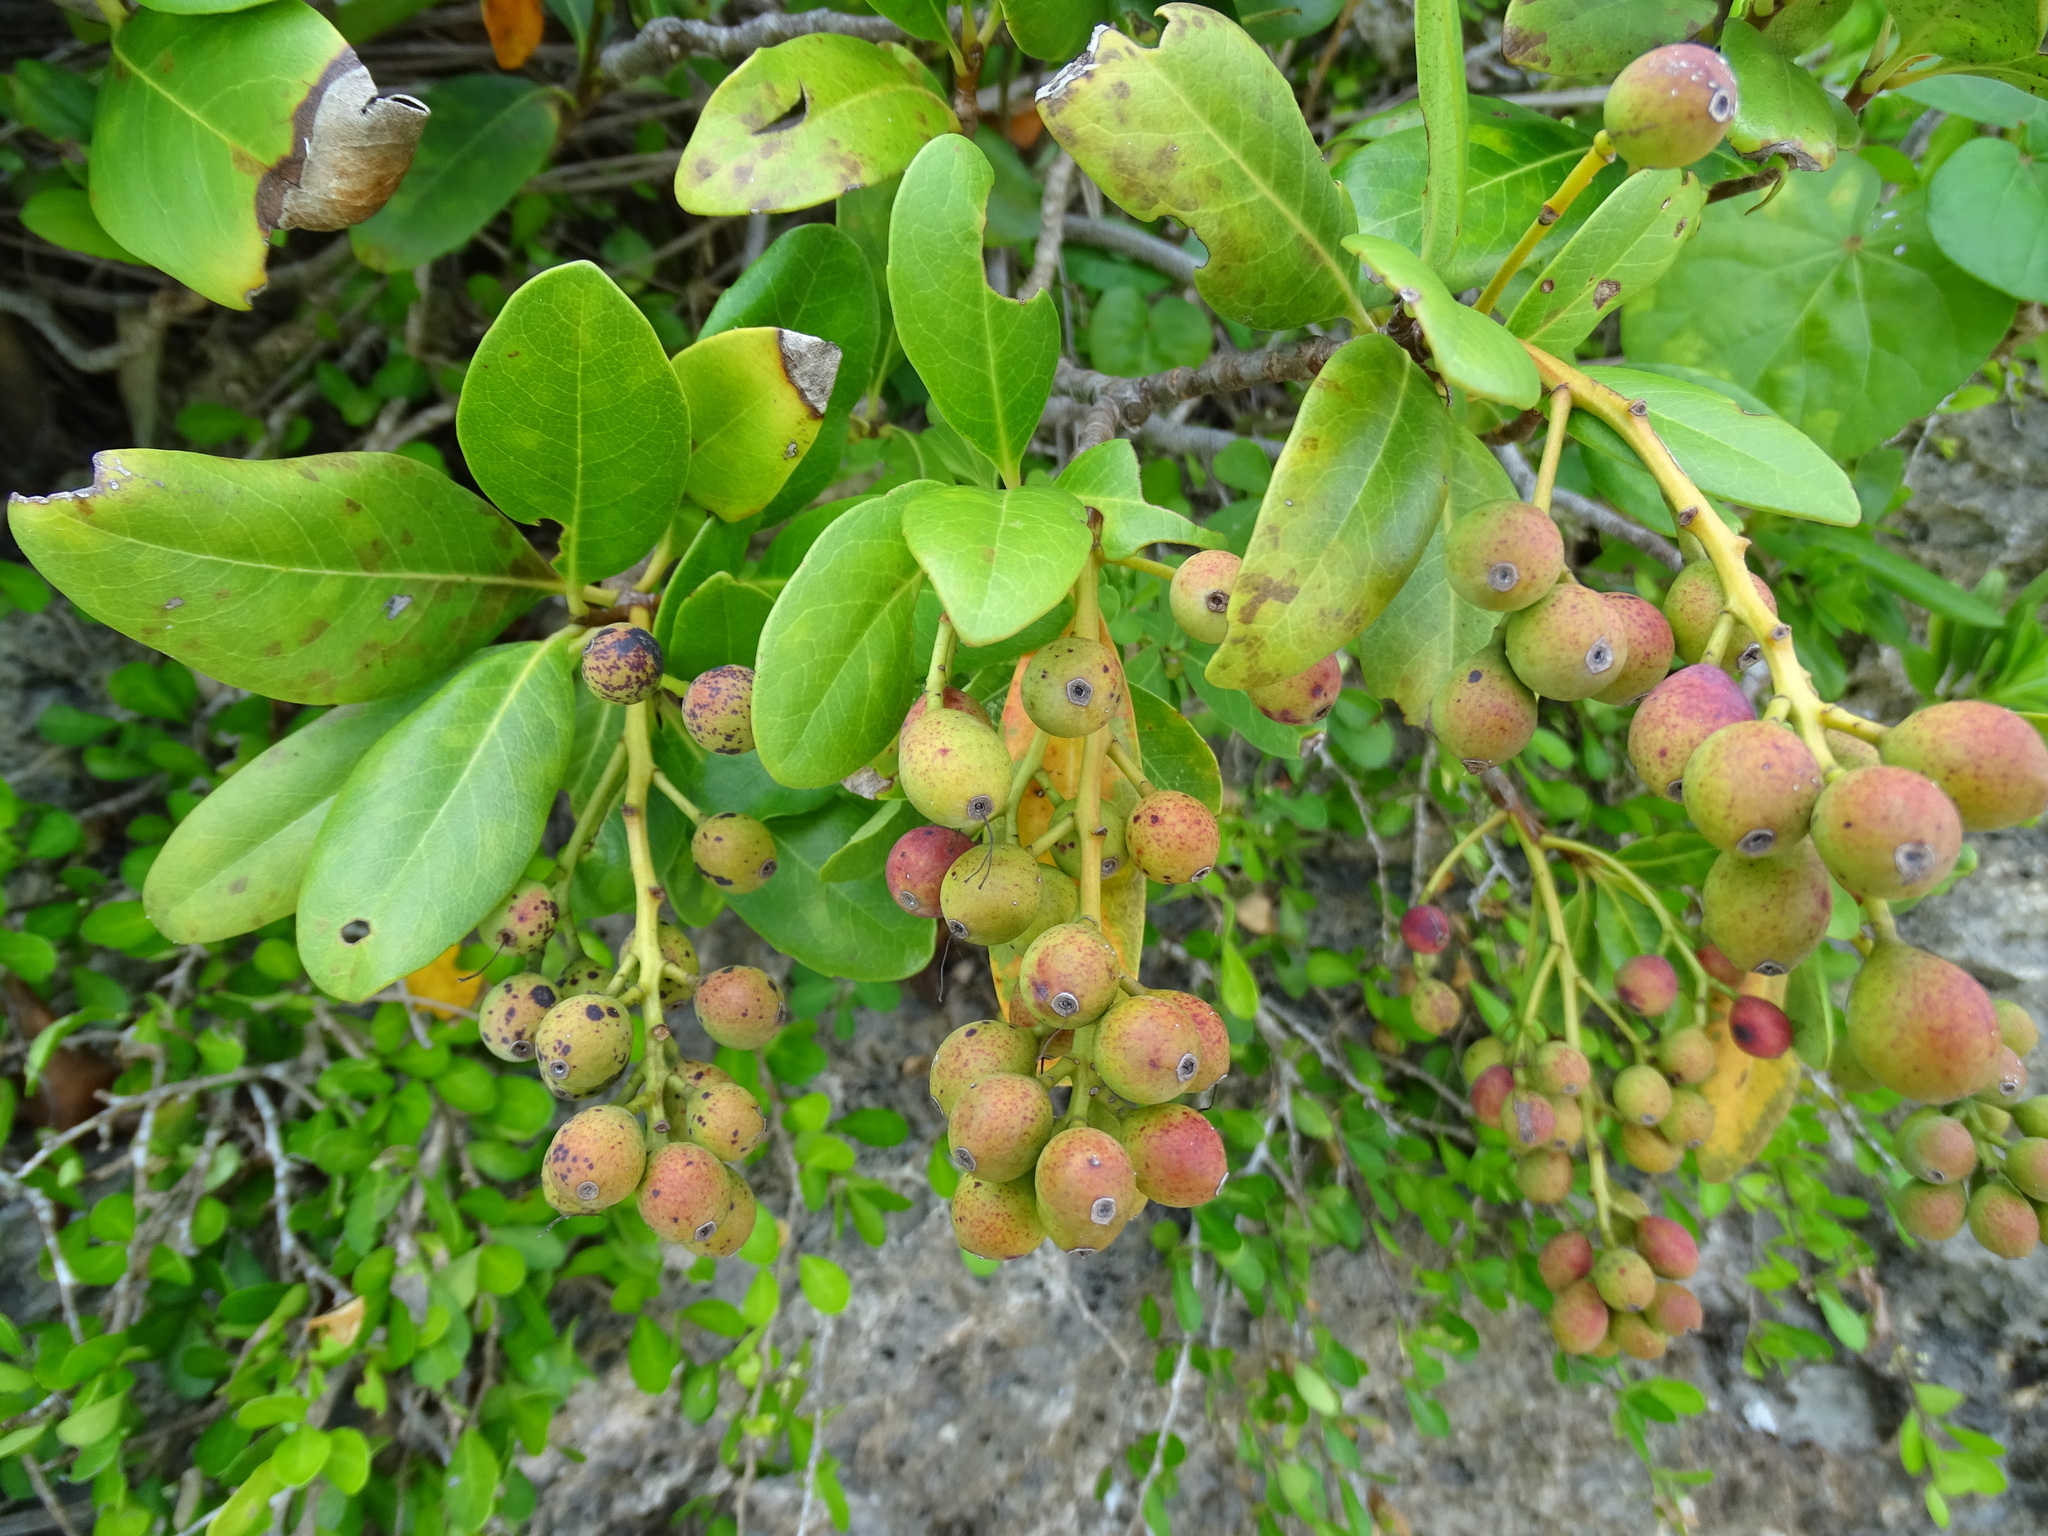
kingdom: Plantae
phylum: Tracheophyta
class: Magnoliopsida
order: Rosales
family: Rosaceae
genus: Rhaphiolepis
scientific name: Rhaphiolepis umbellata
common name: Yedda-hawthorn
